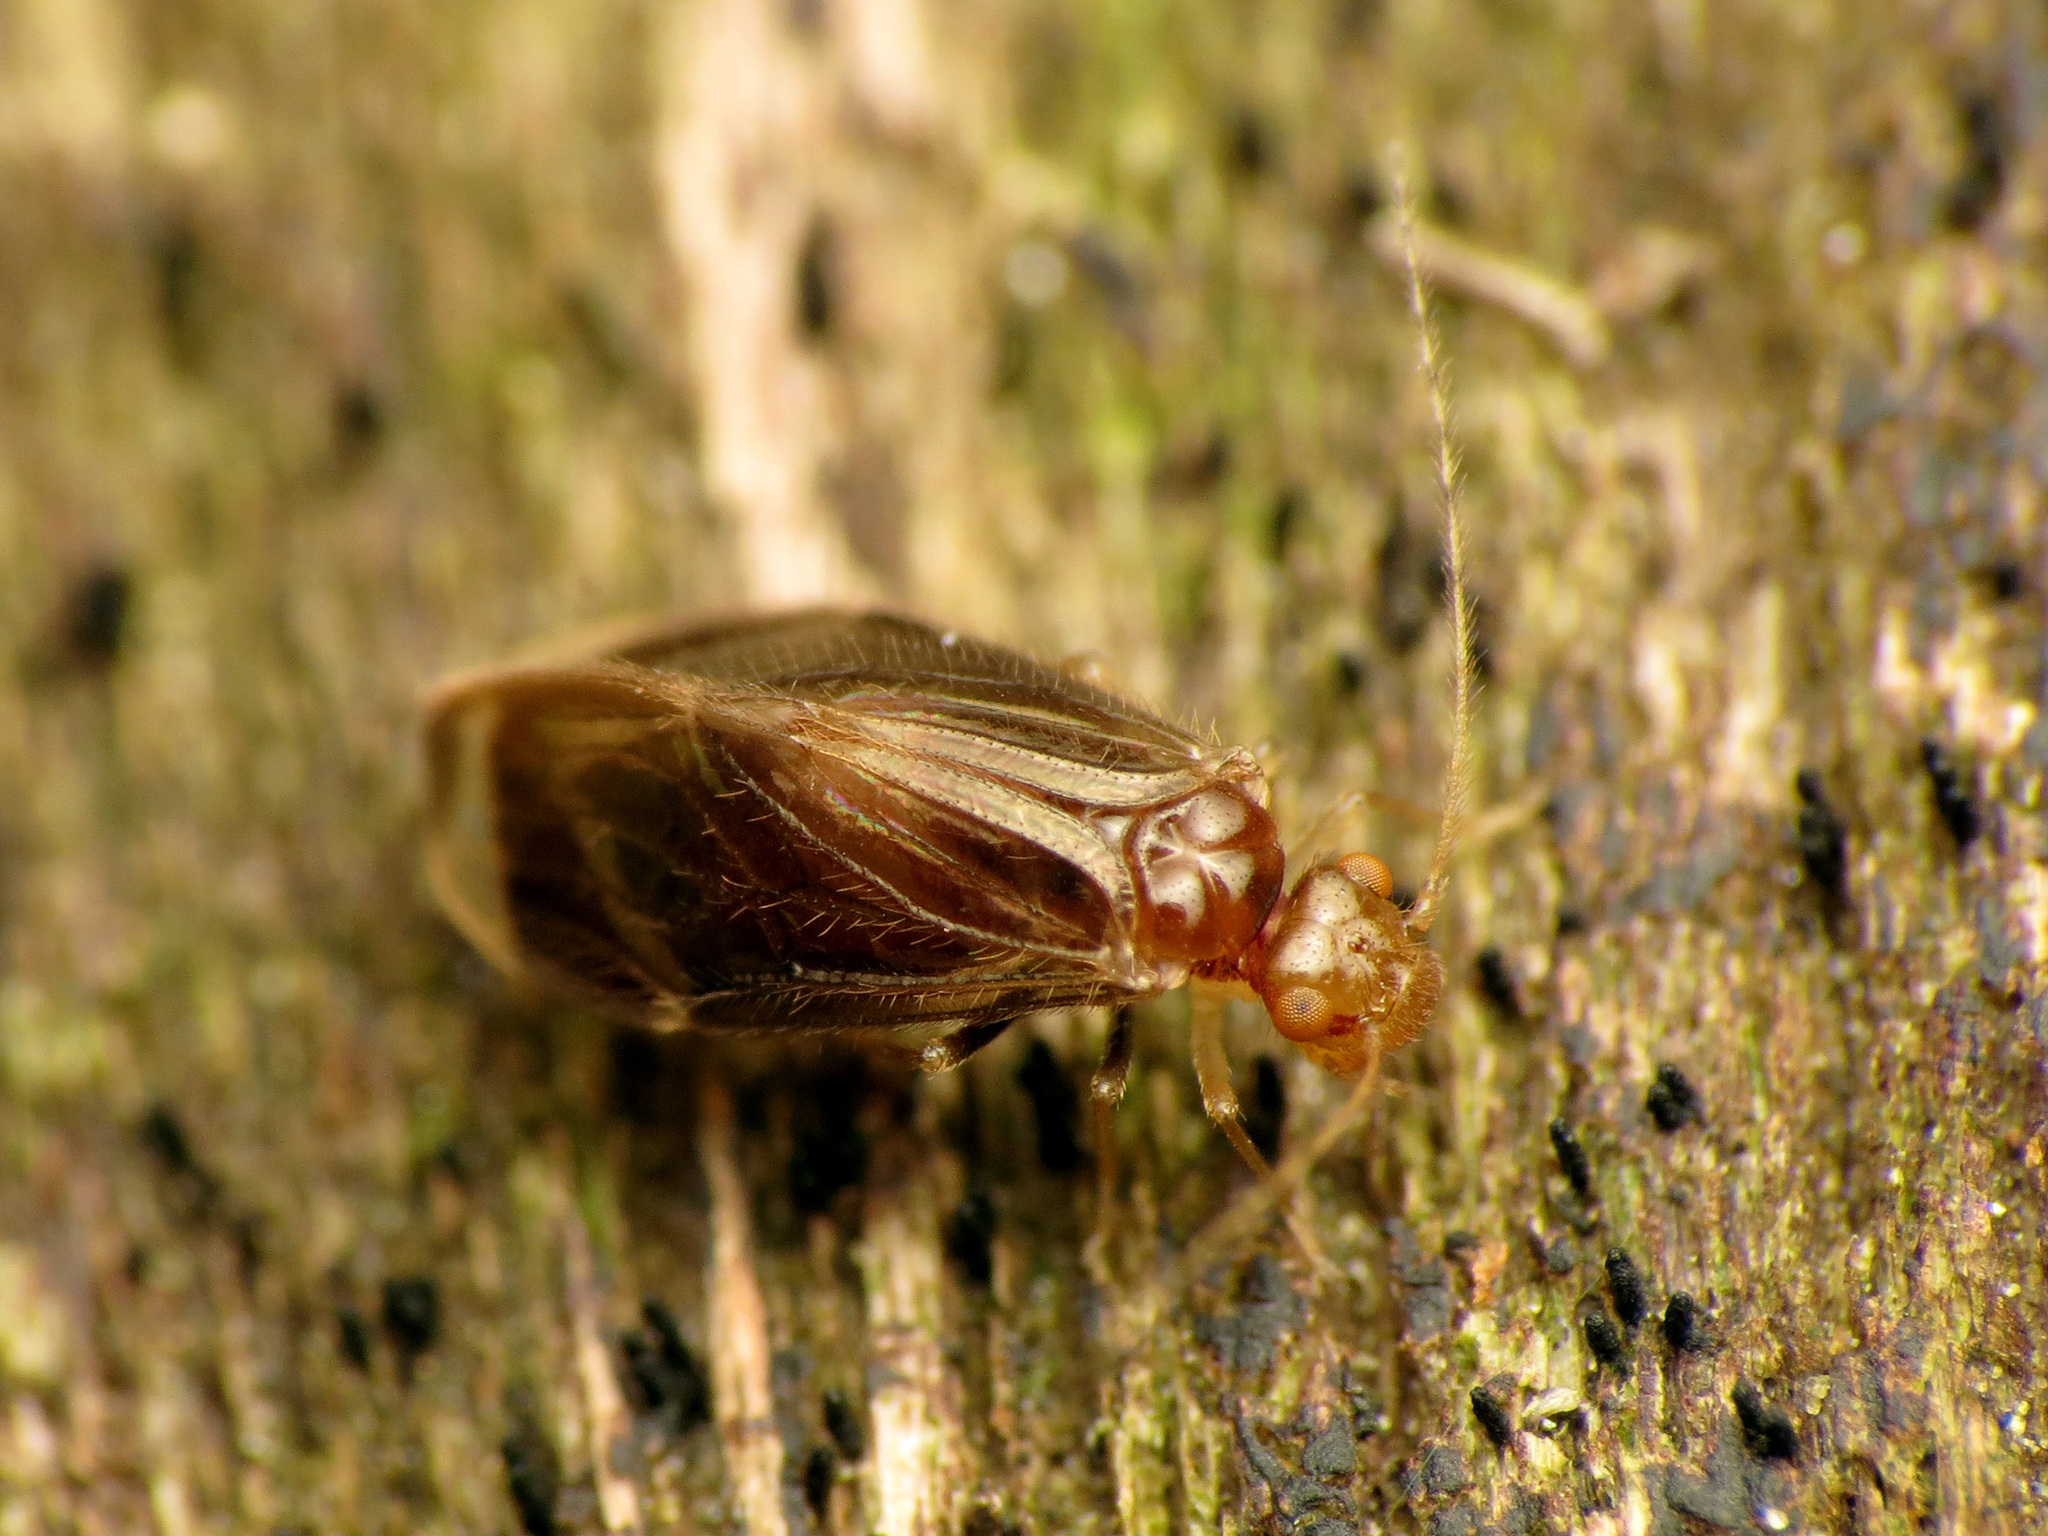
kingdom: Animalia
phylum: Arthropoda
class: Insecta
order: Psocodea
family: Amphipsocidae
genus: Polypsocus
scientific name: Polypsocus corruptus
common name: Corrupt barklouse
